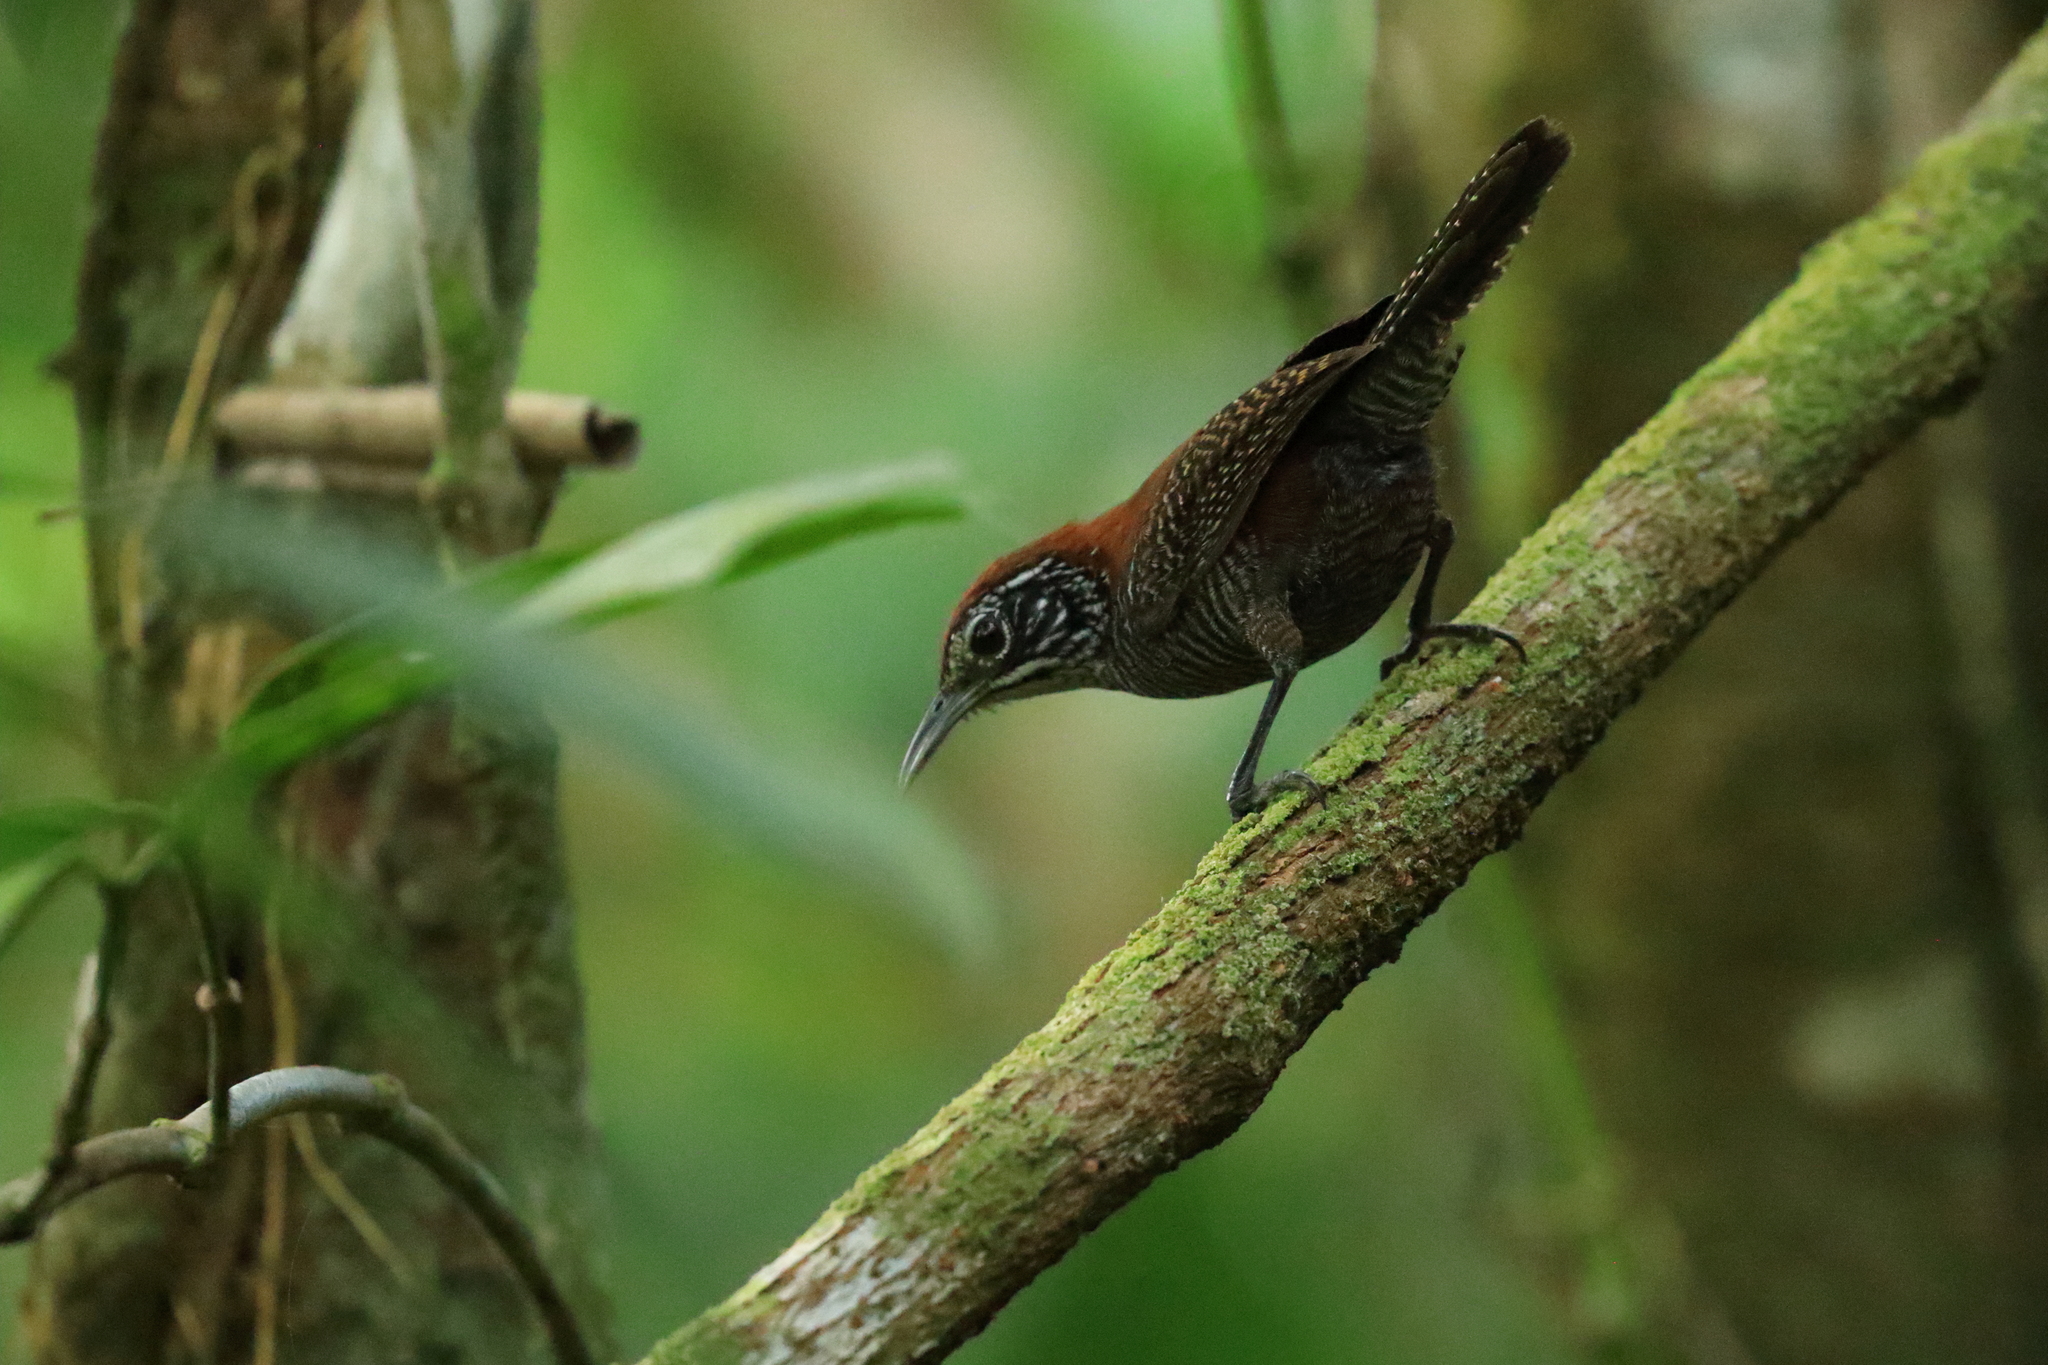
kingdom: Animalia
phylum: Chordata
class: Aves
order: Passeriformes
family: Troglodytidae
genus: Cantorchilus
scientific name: Cantorchilus semibadius
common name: Riverside wren
